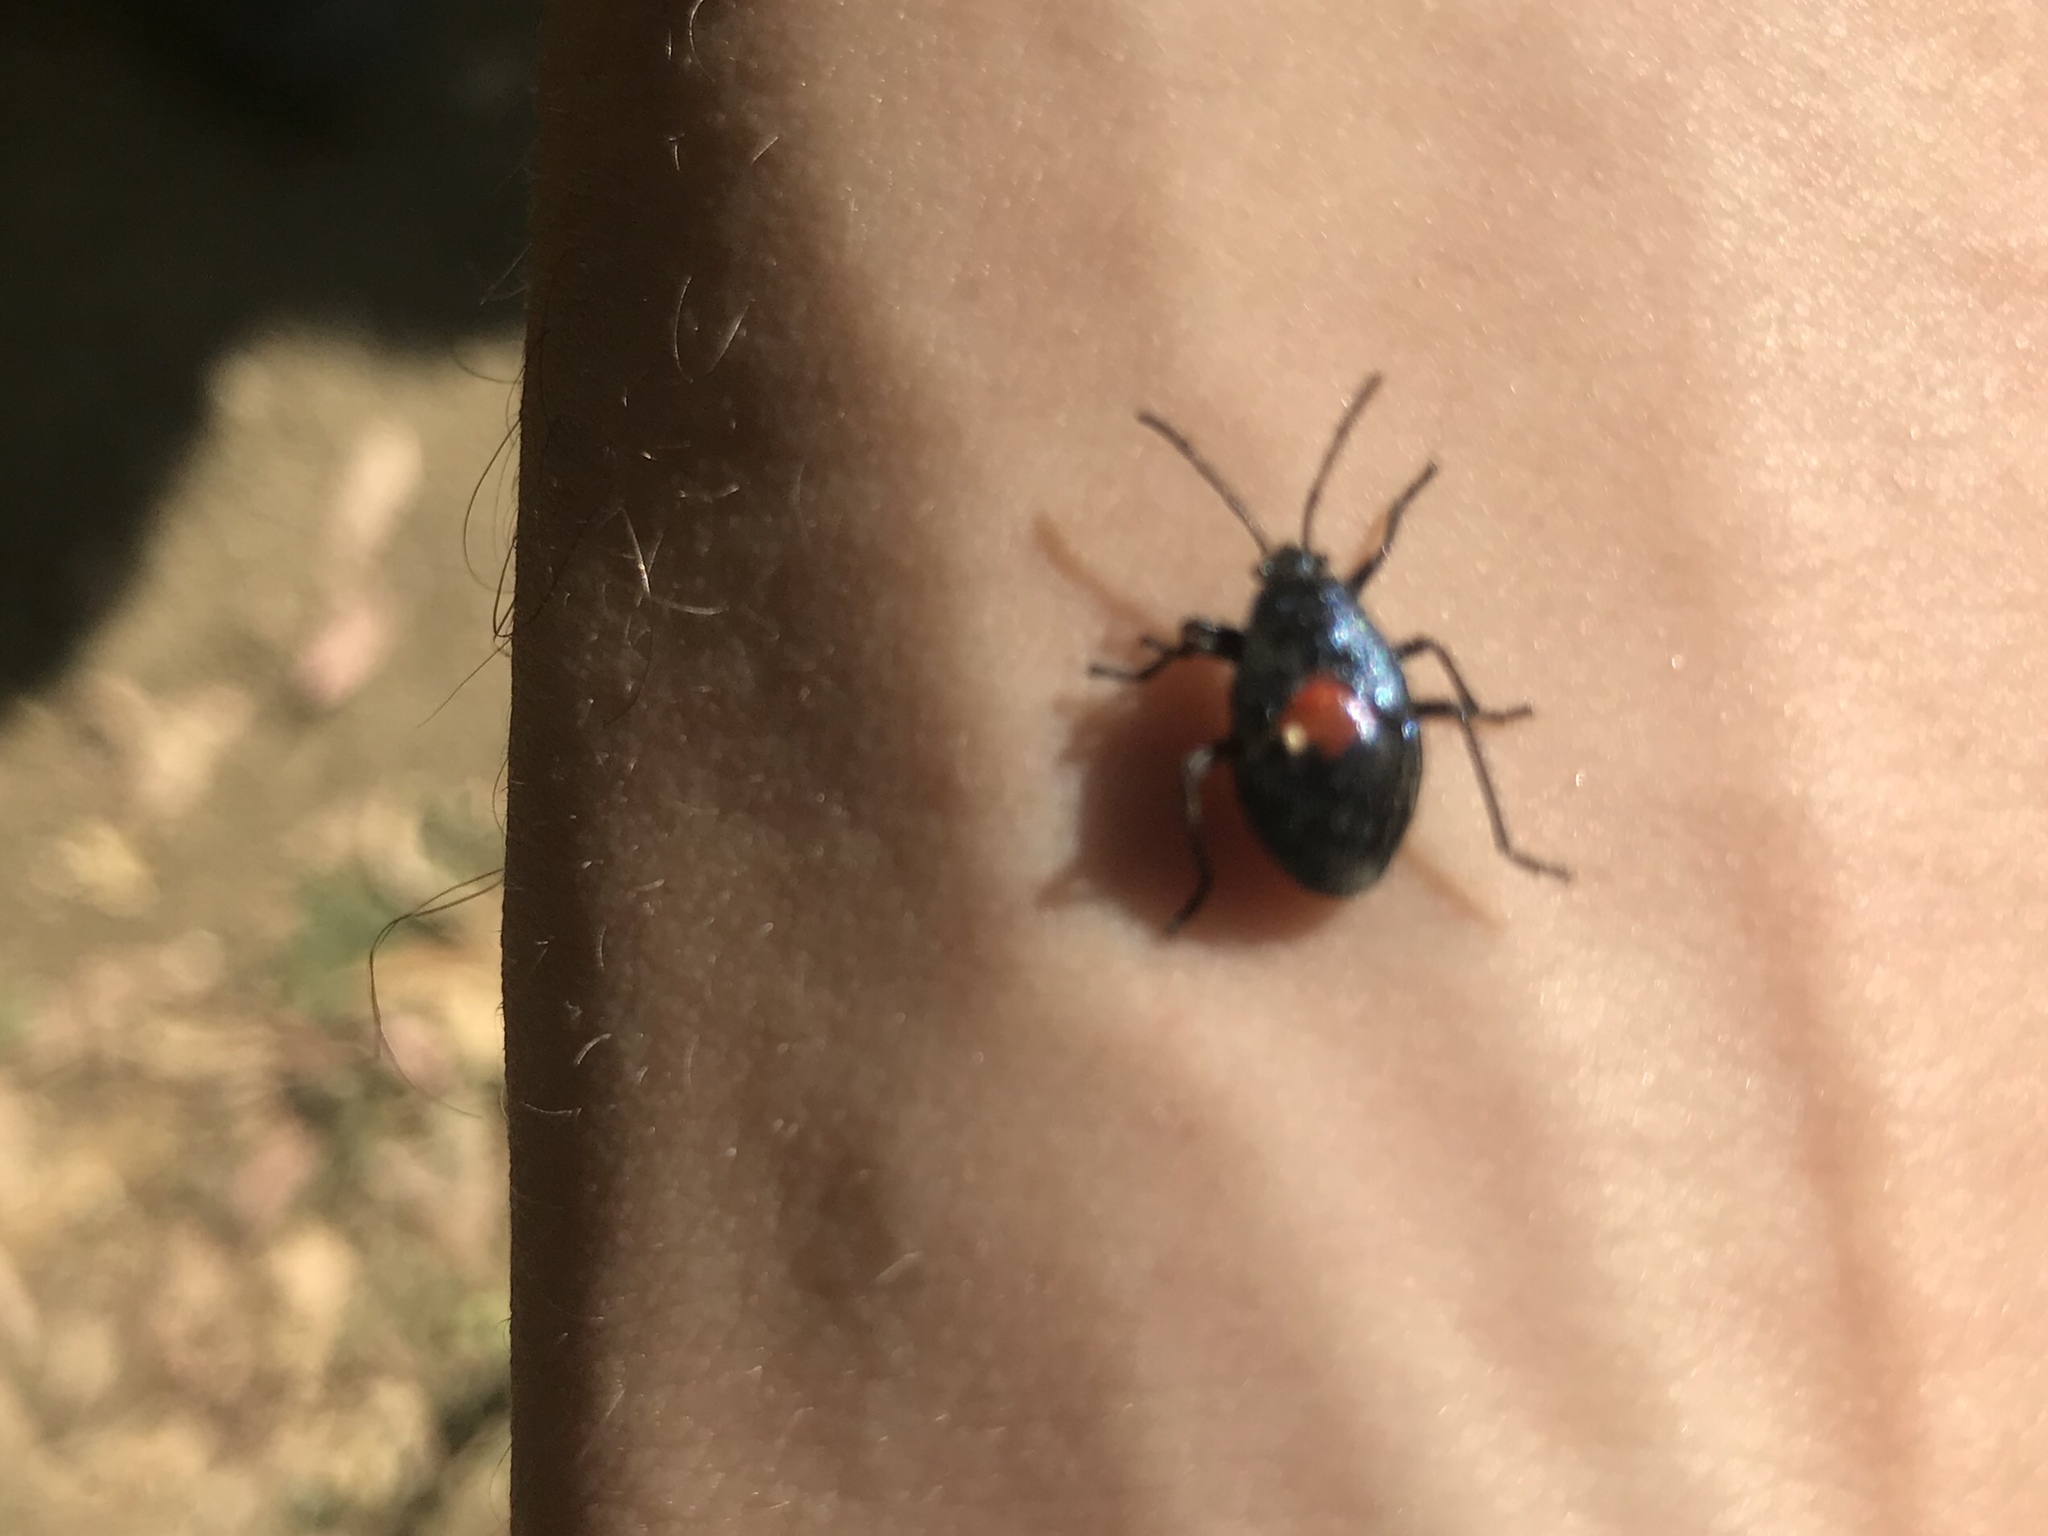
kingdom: Animalia
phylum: Arthropoda
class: Insecta
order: Hemiptera
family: Largidae
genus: Largus
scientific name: Largus californicus
